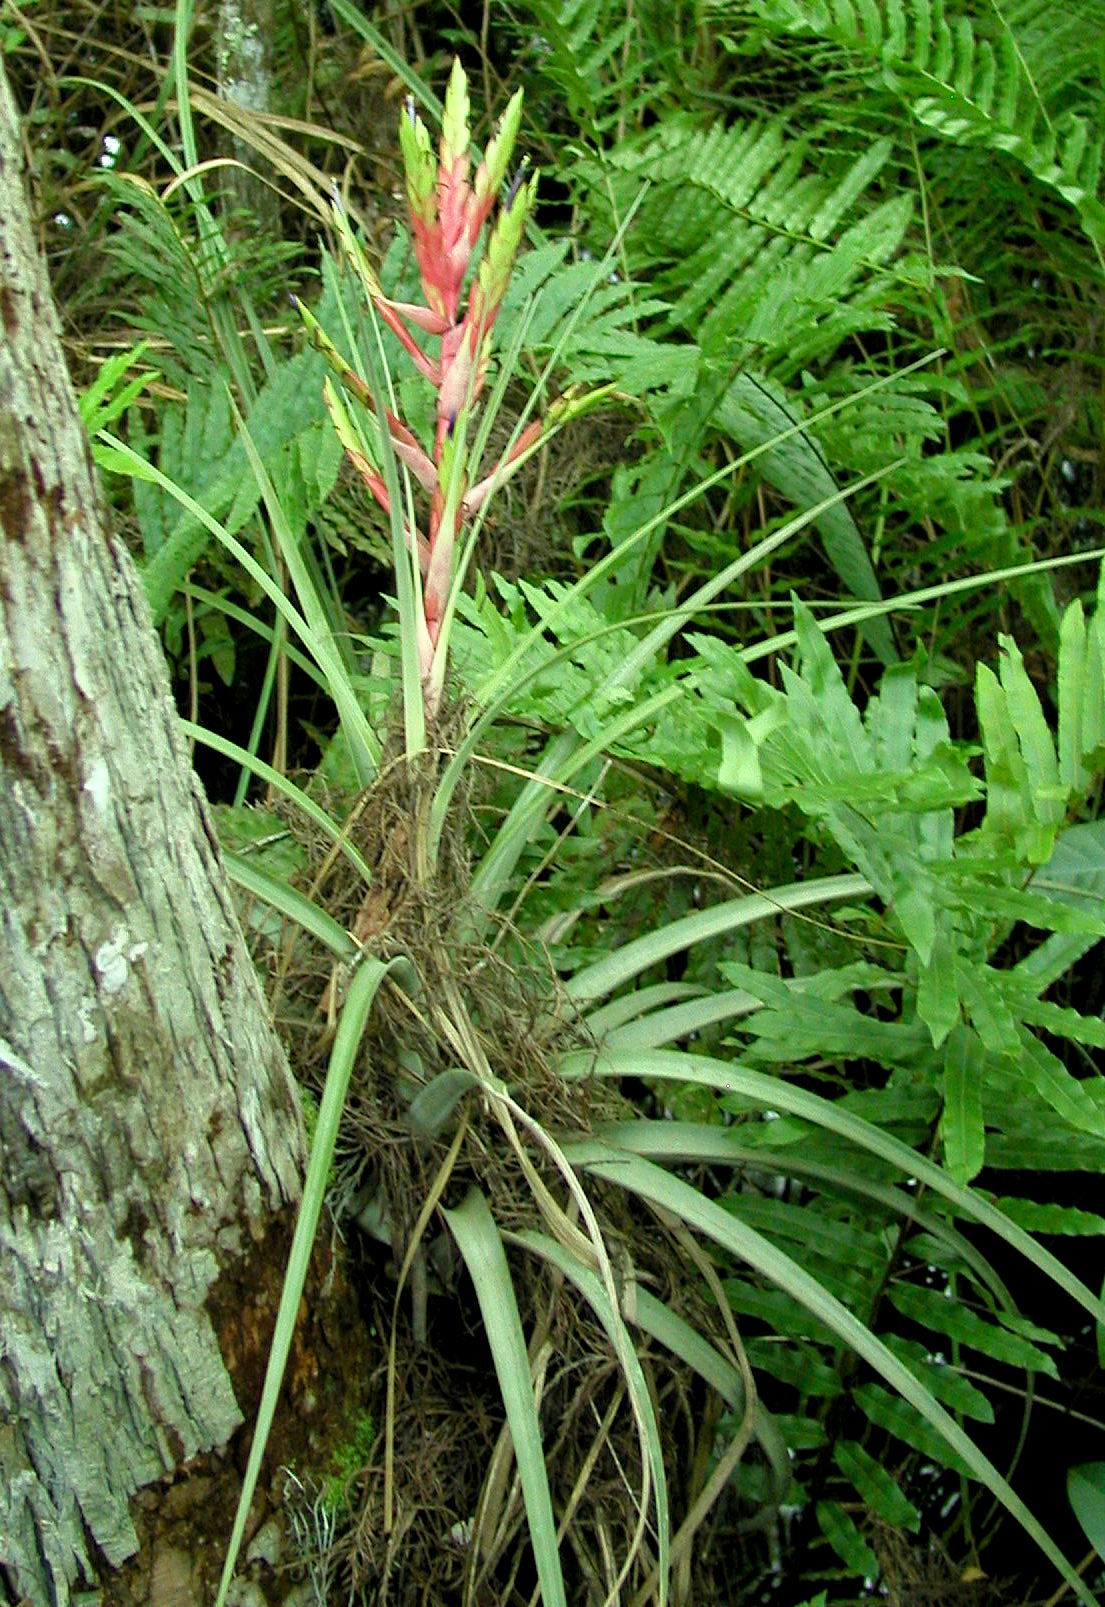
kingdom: Plantae
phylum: Tracheophyta
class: Liliopsida
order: Poales
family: Bromeliaceae
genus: Tillandsia
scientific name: Tillandsia fasciculata
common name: Giant airplant
